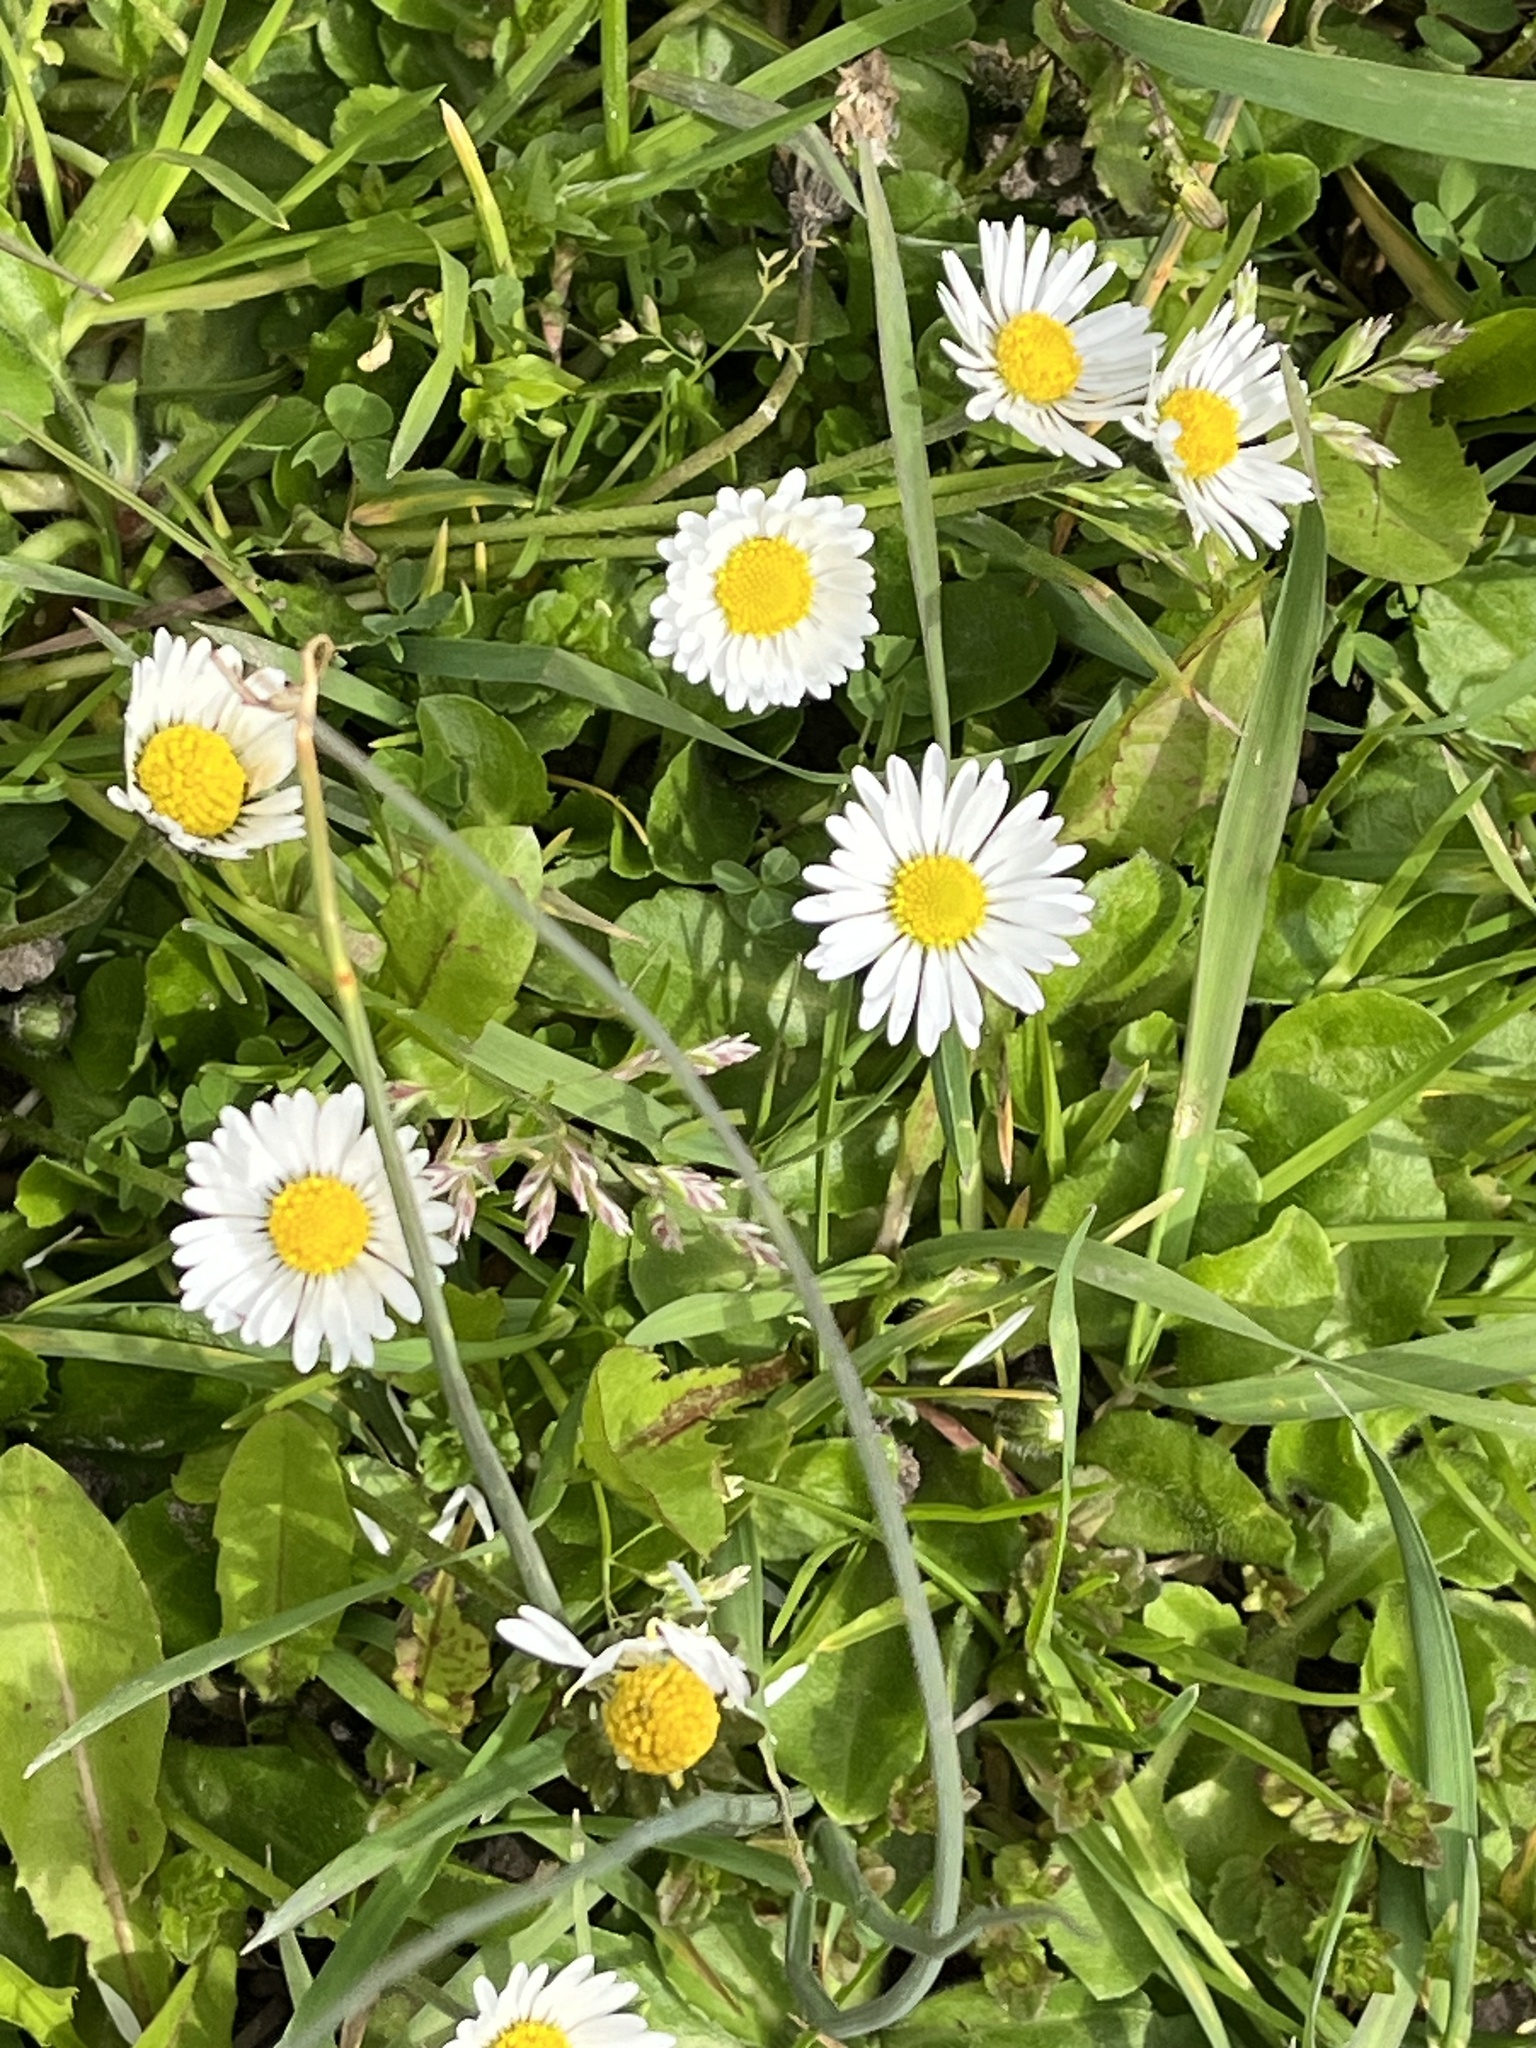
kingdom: Plantae
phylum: Tracheophyta
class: Magnoliopsida
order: Asterales
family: Asteraceae
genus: Bellis
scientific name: Bellis perennis
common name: Lawndaisy
